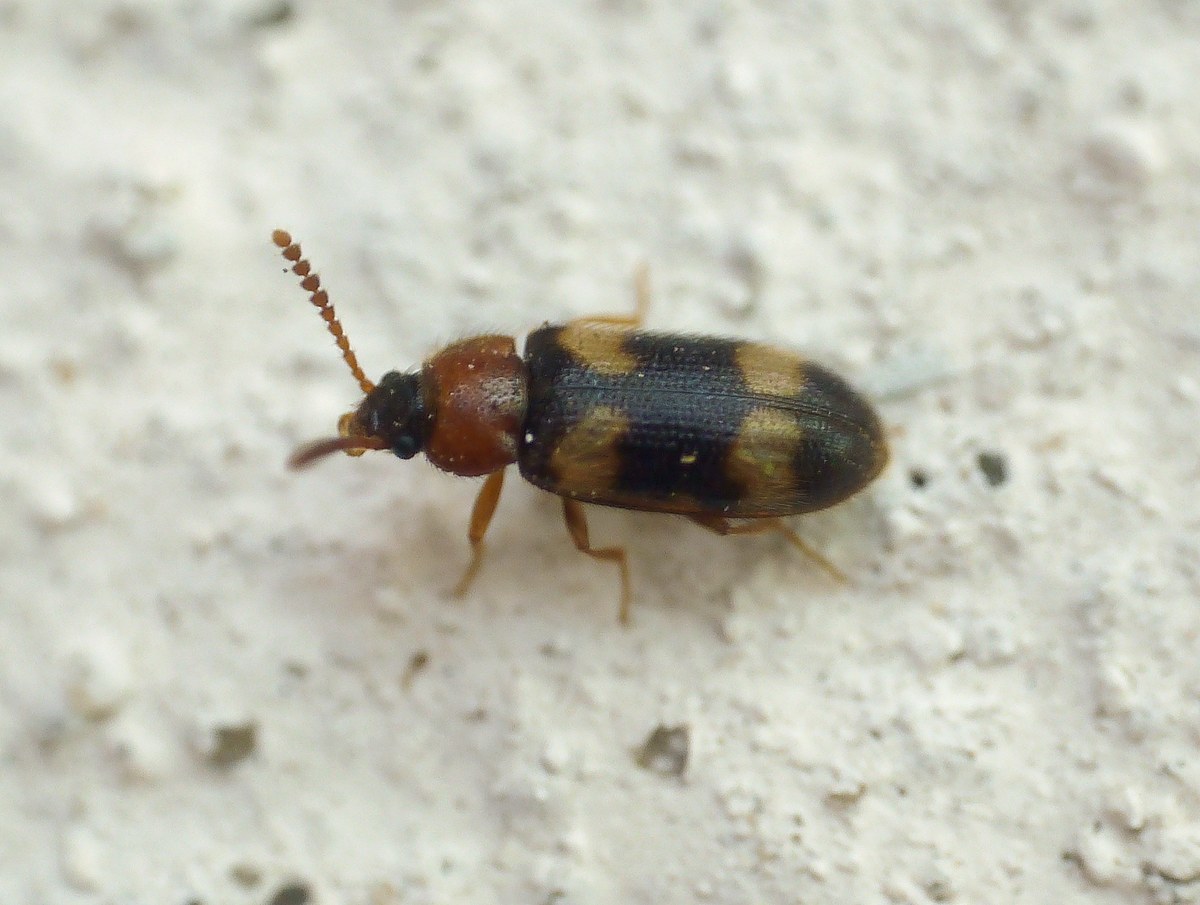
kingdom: Animalia
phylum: Arthropoda
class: Insecta
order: Coleoptera
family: Mycetophagidae
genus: Mycetophagus
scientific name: Mycetophagus fulvicollis
